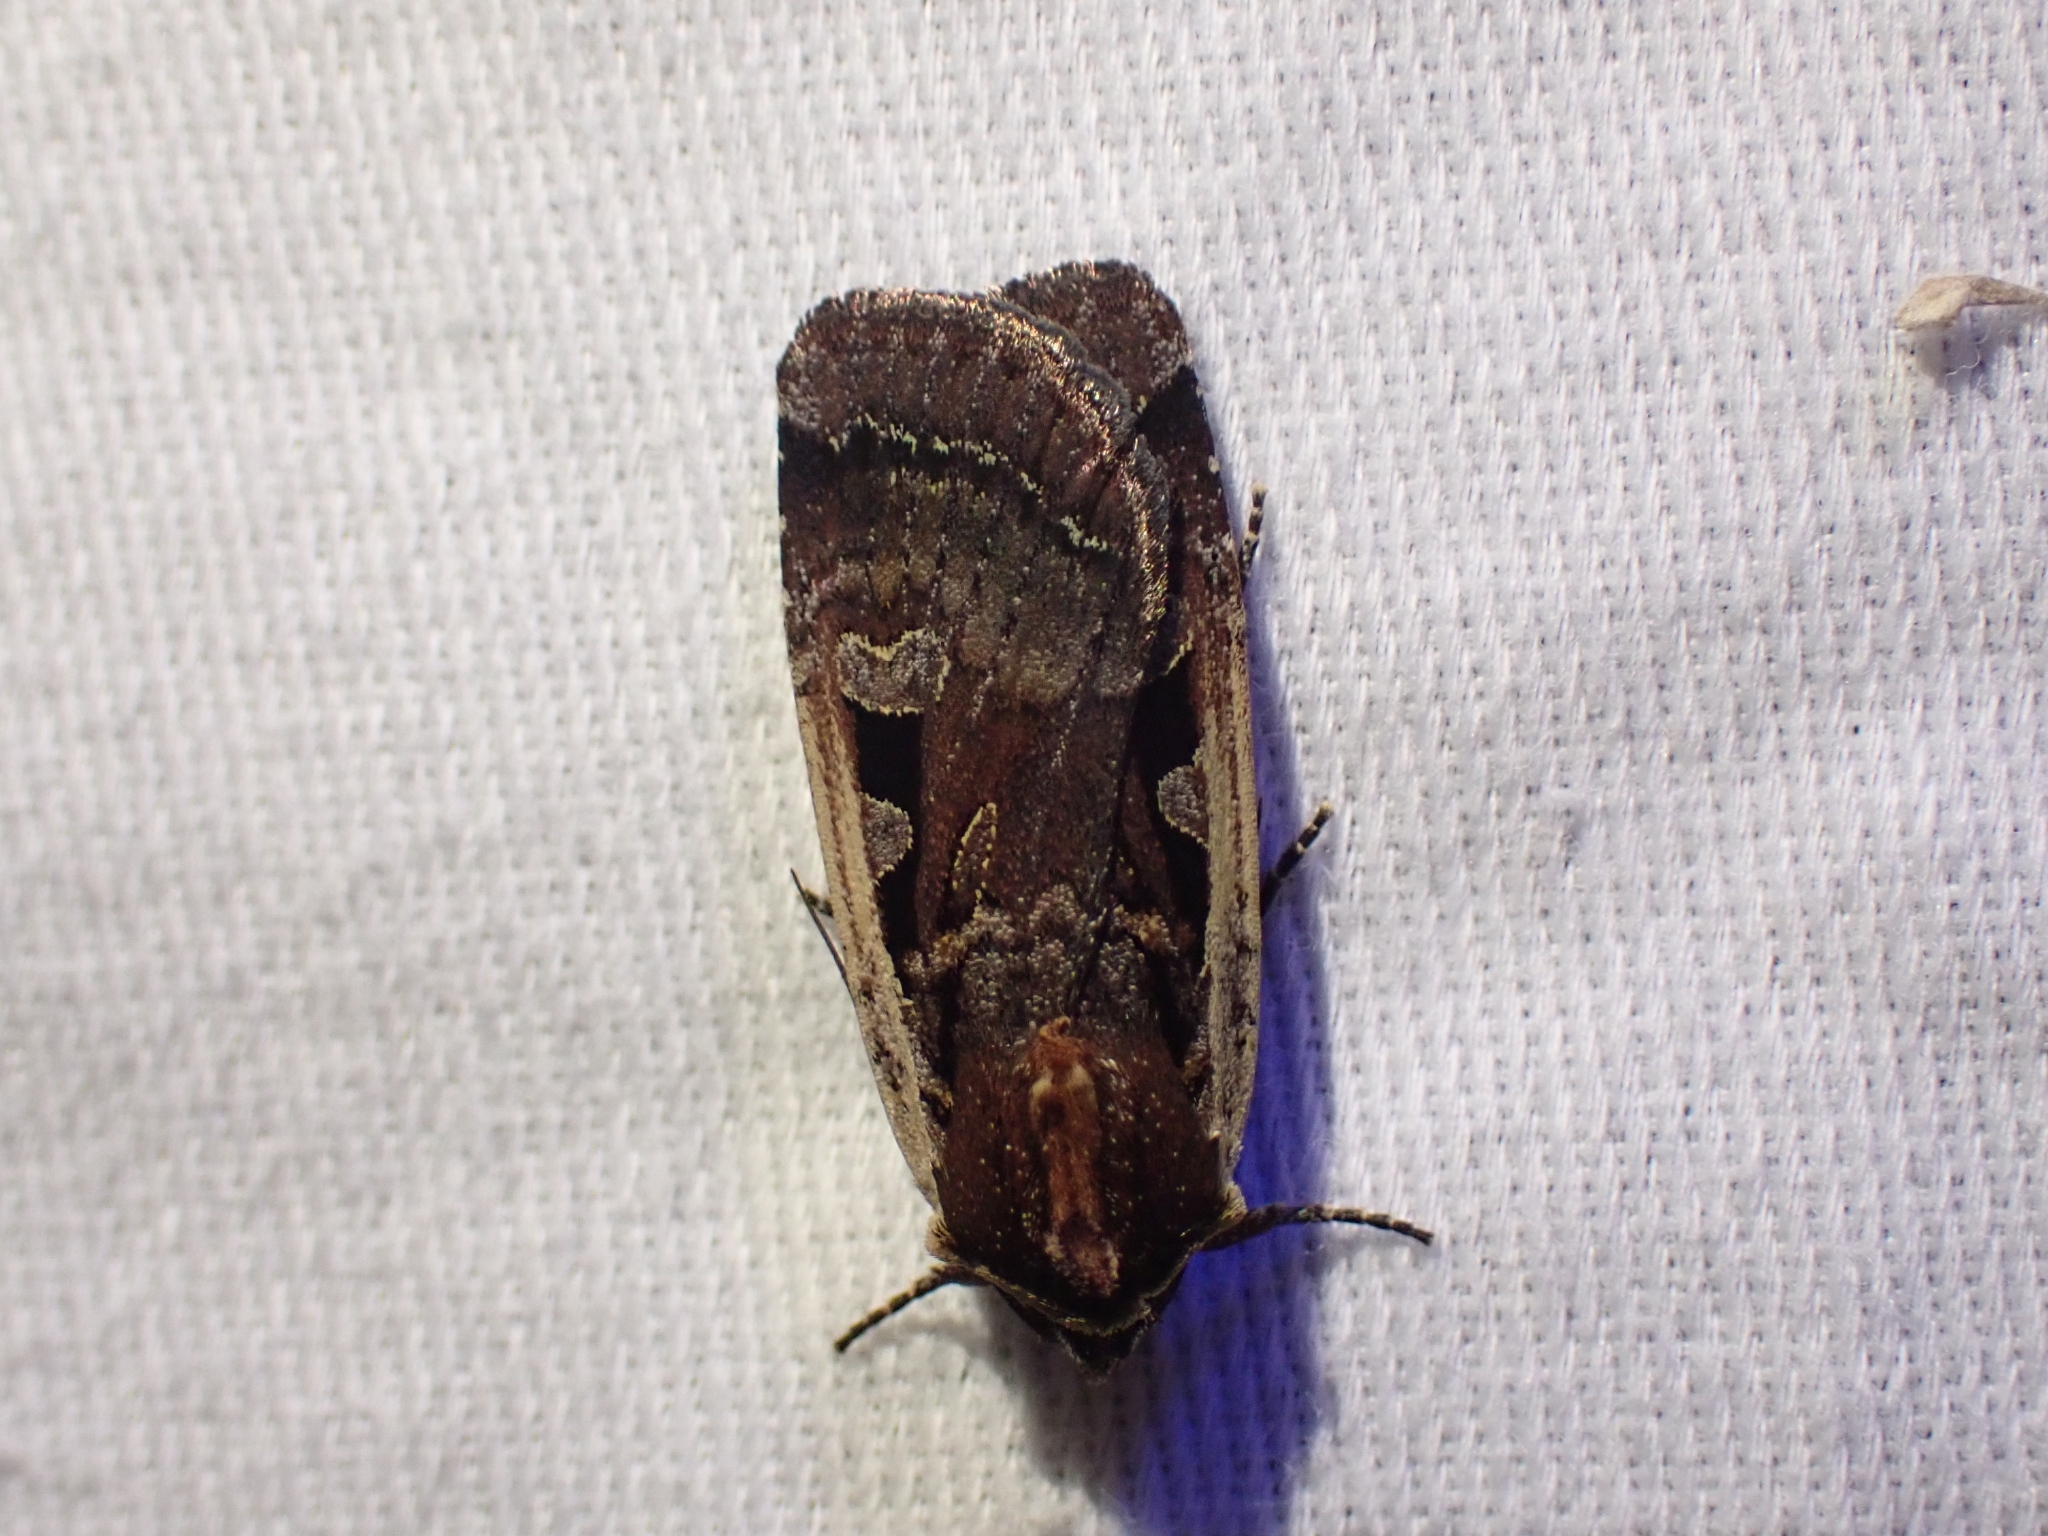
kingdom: Animalia
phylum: Arthropoda
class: Insecta
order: Lepidoptera
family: Noctuidae
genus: Parabagrotis
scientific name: Parabagrotis exsertistigma
